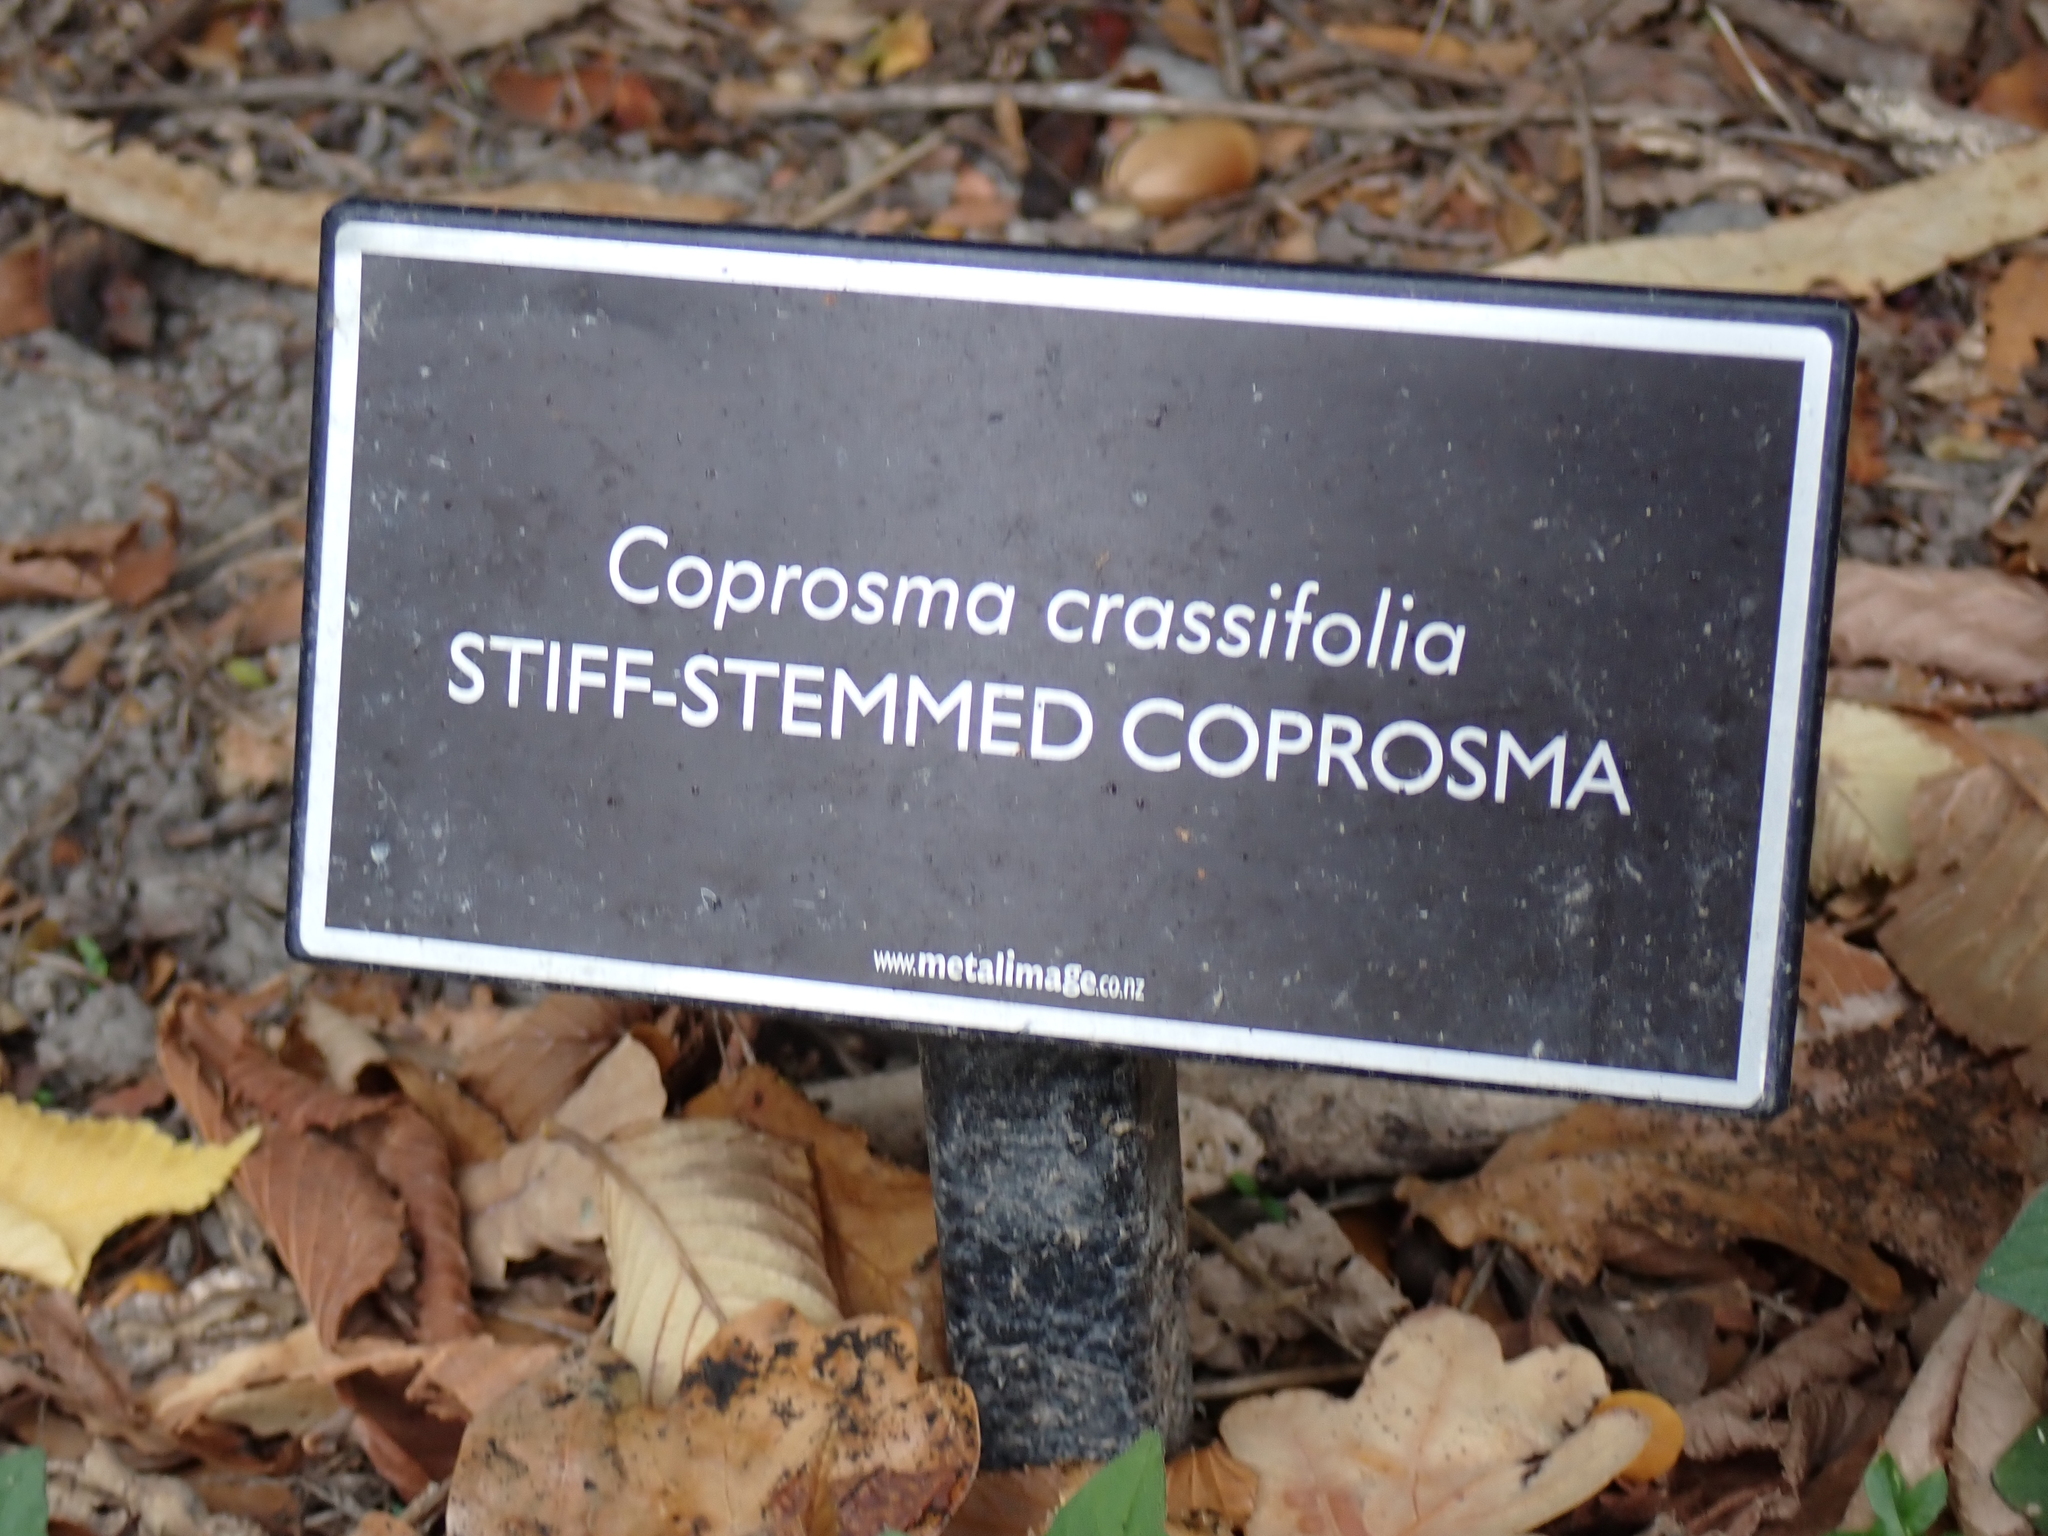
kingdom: Plantae
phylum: Tracheophyta
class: Magnoliopsida
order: Gentianales
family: Rubiaceae
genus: Coprosma
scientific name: Coprosma crassifolia
